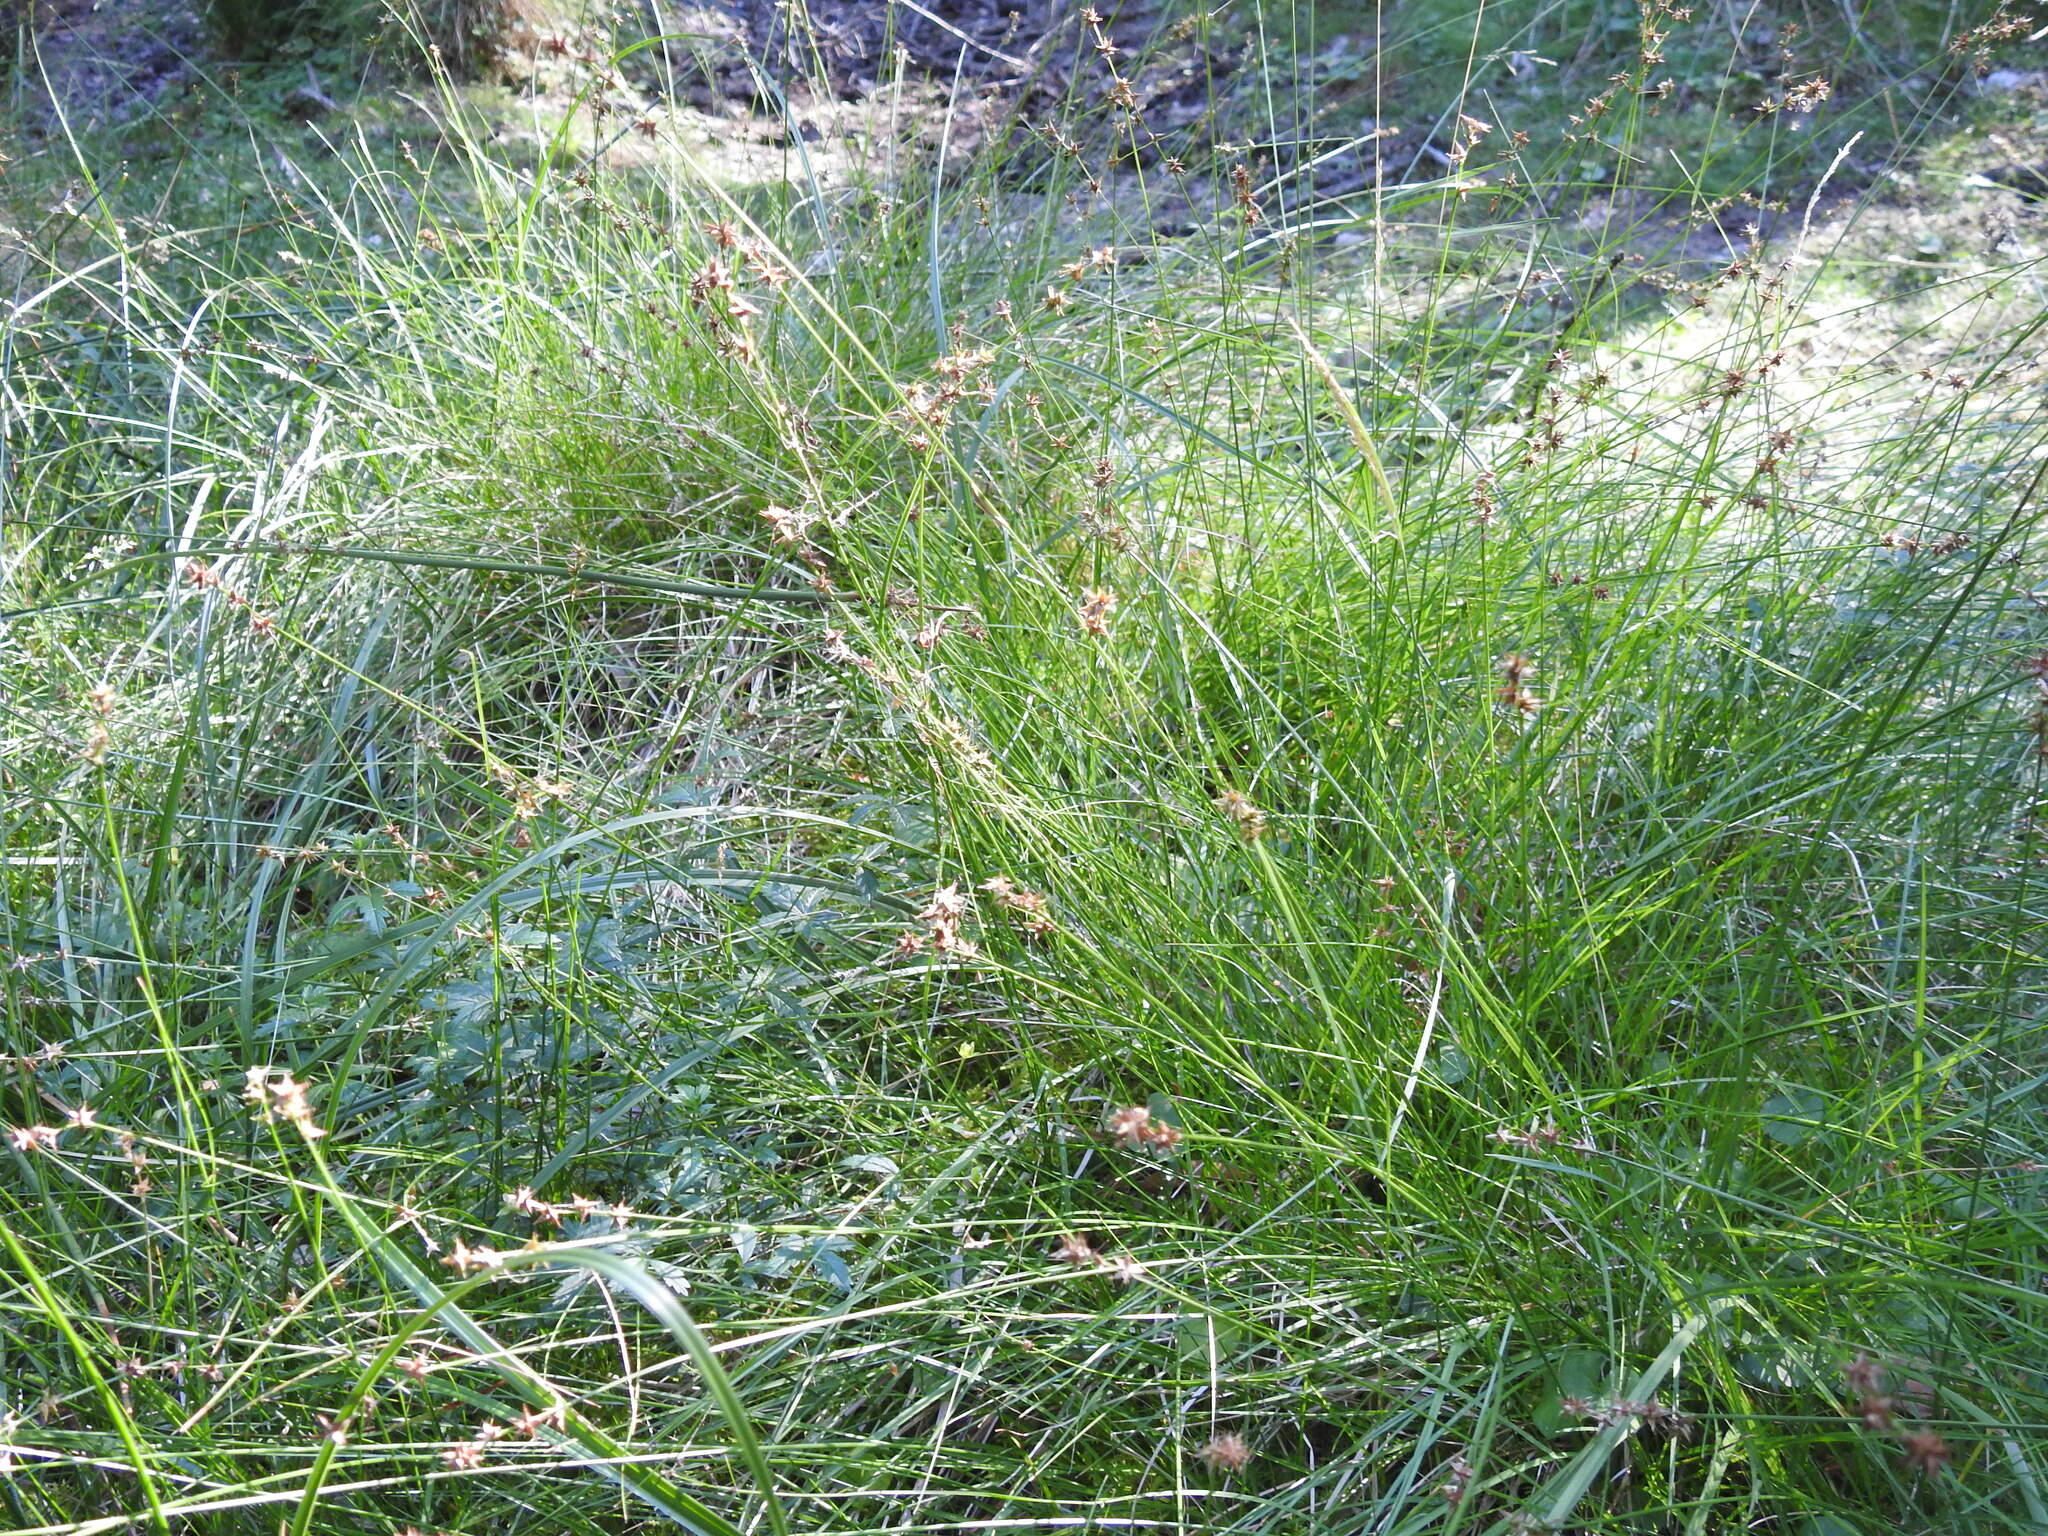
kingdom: Plantae
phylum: Tracheophyta
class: Liliopsida
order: Poales
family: Cyperaceae
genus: Carex
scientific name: Carex echinata
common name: Star sedge
